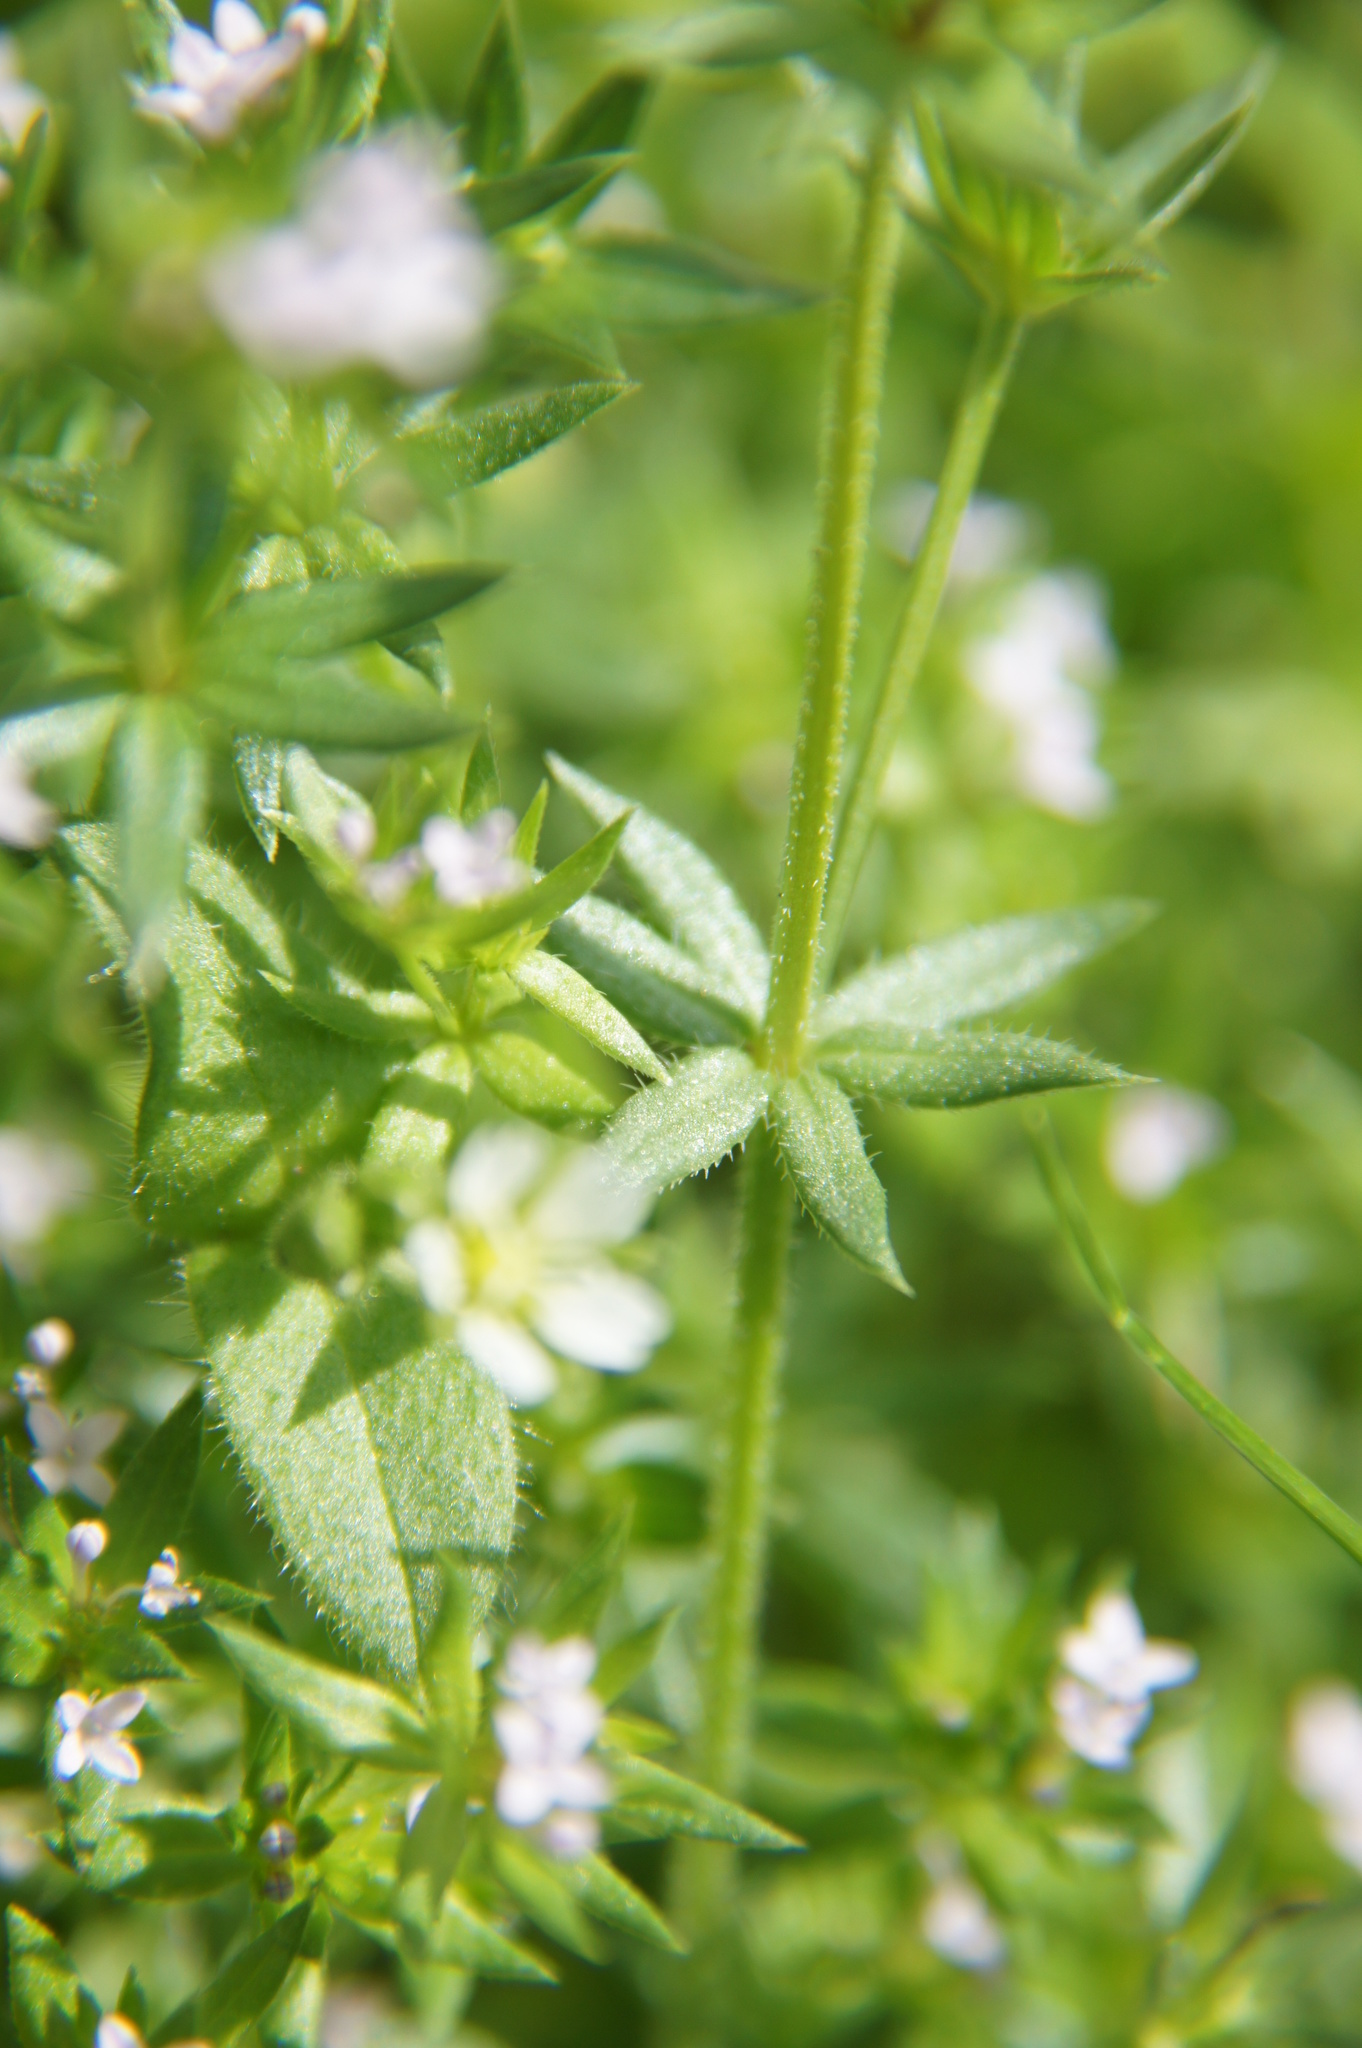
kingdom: Plantae
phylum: Tracheophyta
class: Magnoliopsida
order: Gentianales
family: Rubiaceae
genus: Sherardia
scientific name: Sherardia arvensis
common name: Field madder
